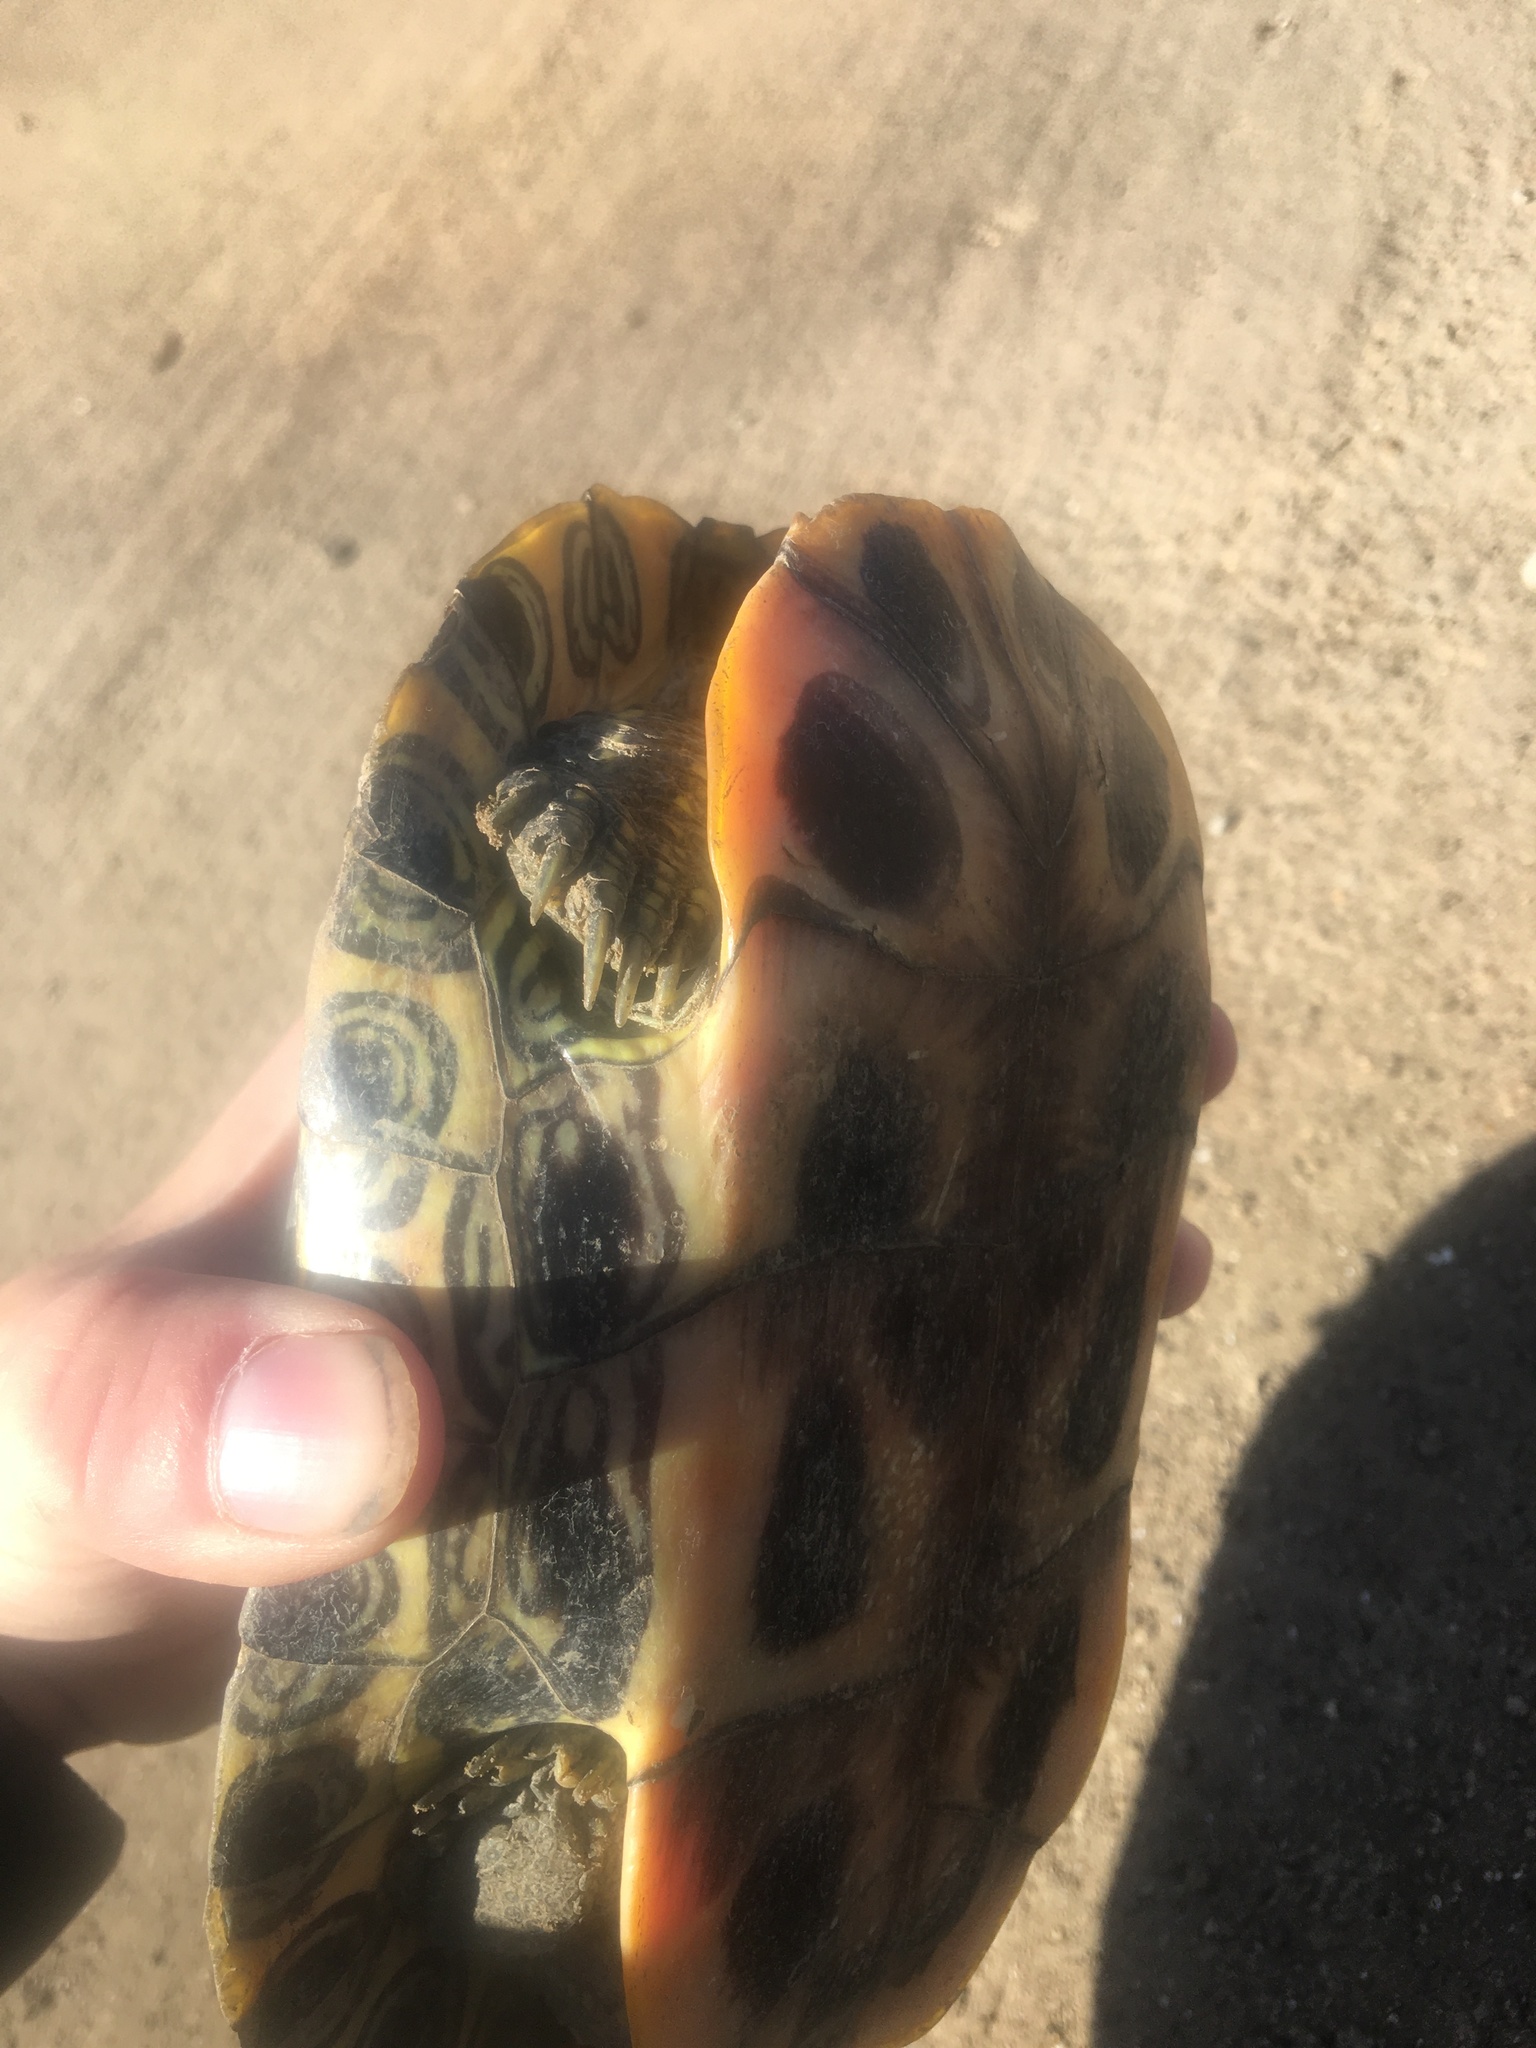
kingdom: Animalia
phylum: Chordata
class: Testudines
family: Emydidae
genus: Trachemys
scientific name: Trachemys scripta
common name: Slider
